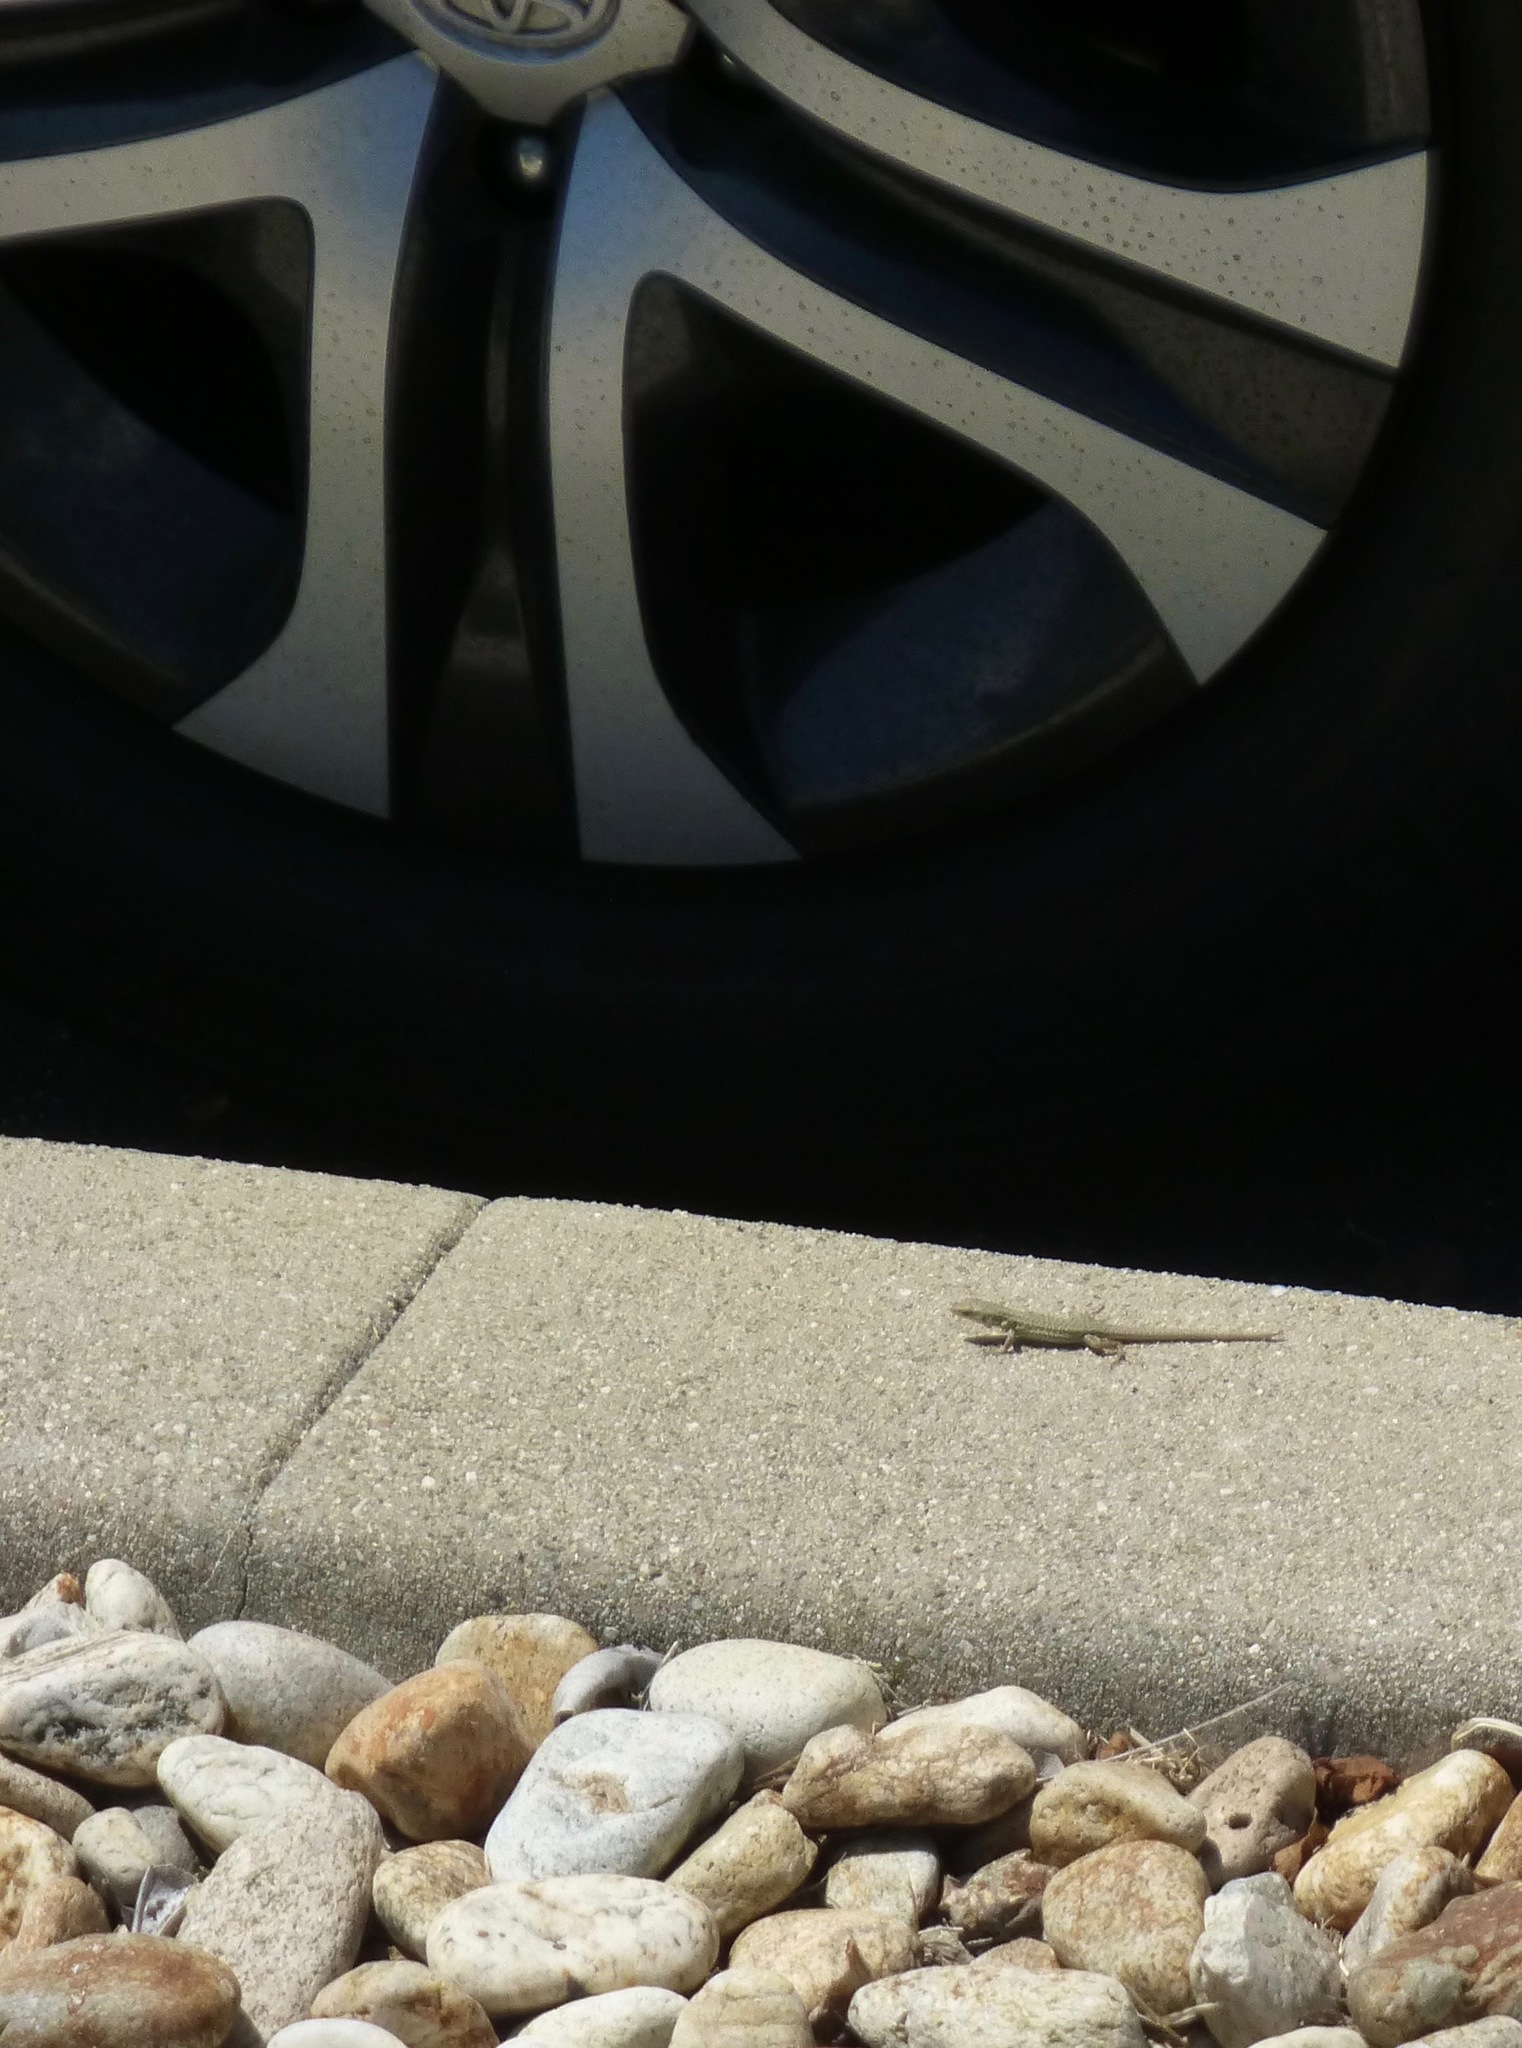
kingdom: Animalia
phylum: Chordata
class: Squamata
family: Lacertidae
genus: Podarcis
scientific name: Podarcis siculus
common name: Italian wall lizard
